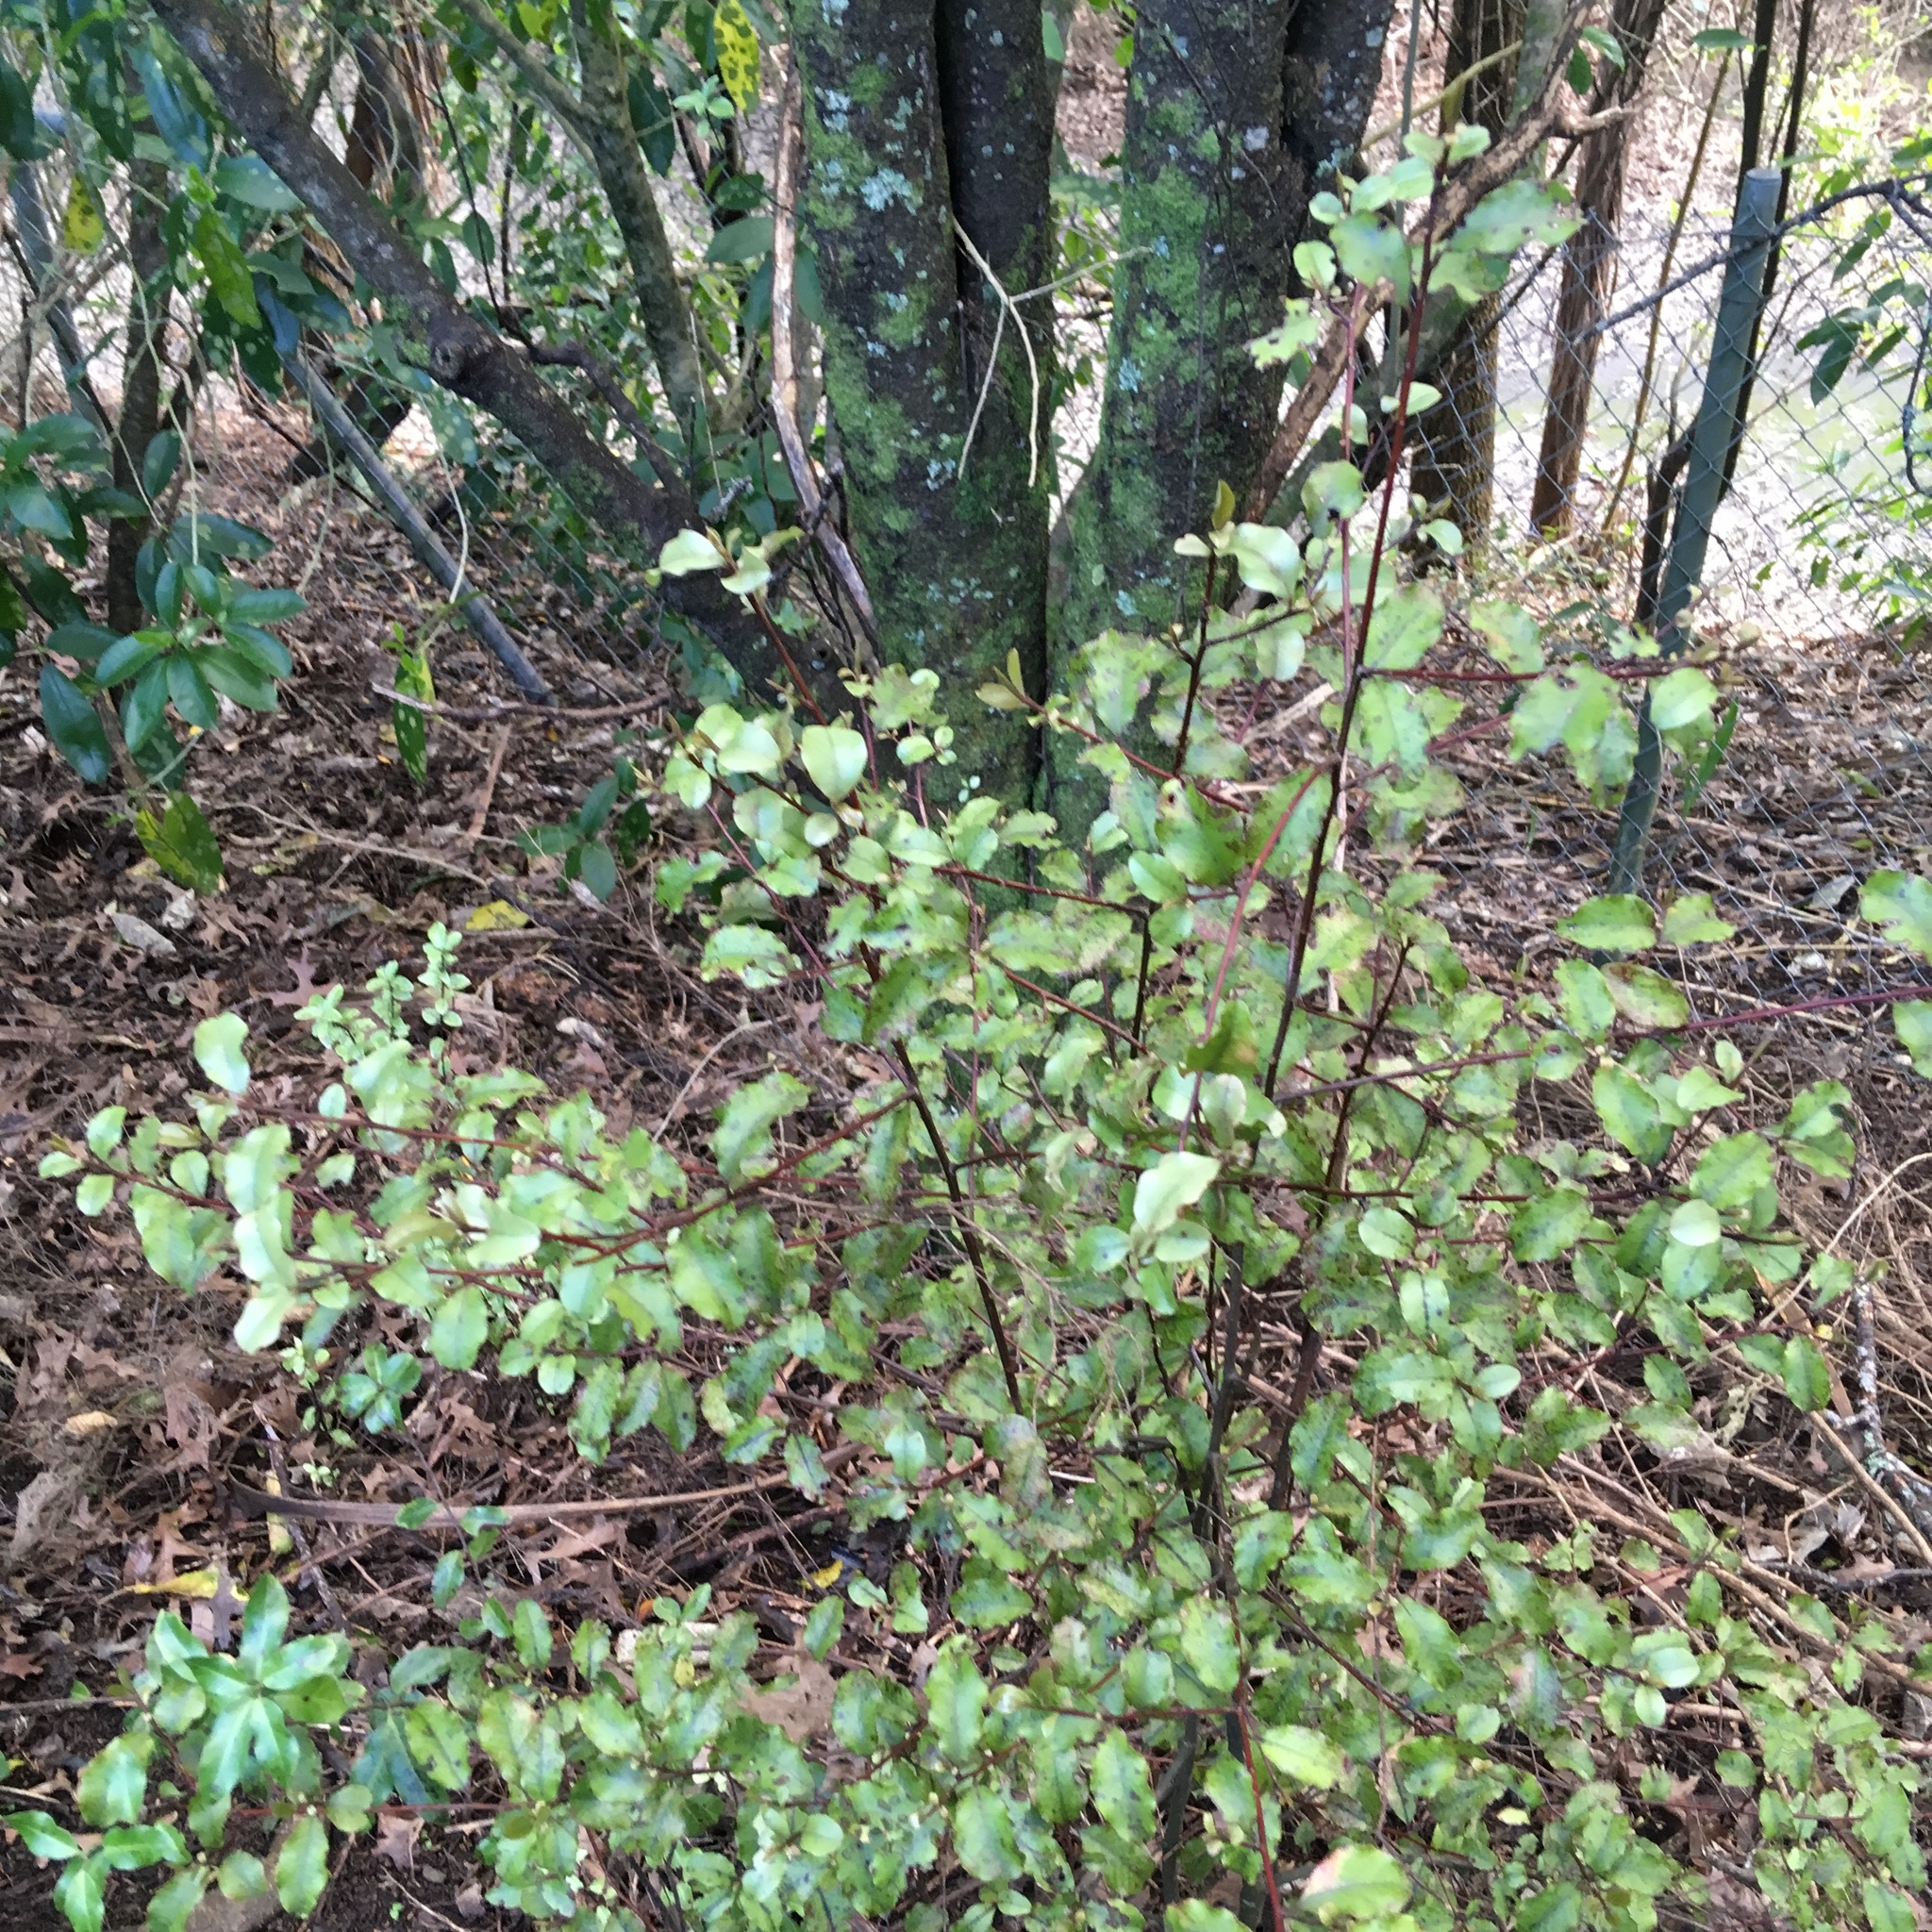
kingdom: Plantae
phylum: Tracheophyta
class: Magnoliopsida
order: Ericales
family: Primulaceae
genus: Myrsine
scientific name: Myrsine australis
